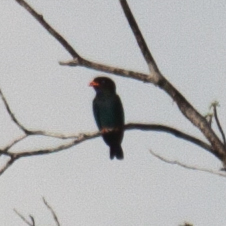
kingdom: Animalia
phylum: Chordata
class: Aves
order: Coraciiformes
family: Coraciidae
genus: Eurystomus
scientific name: Eurystomus orientalis
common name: Oriental dollarbird
